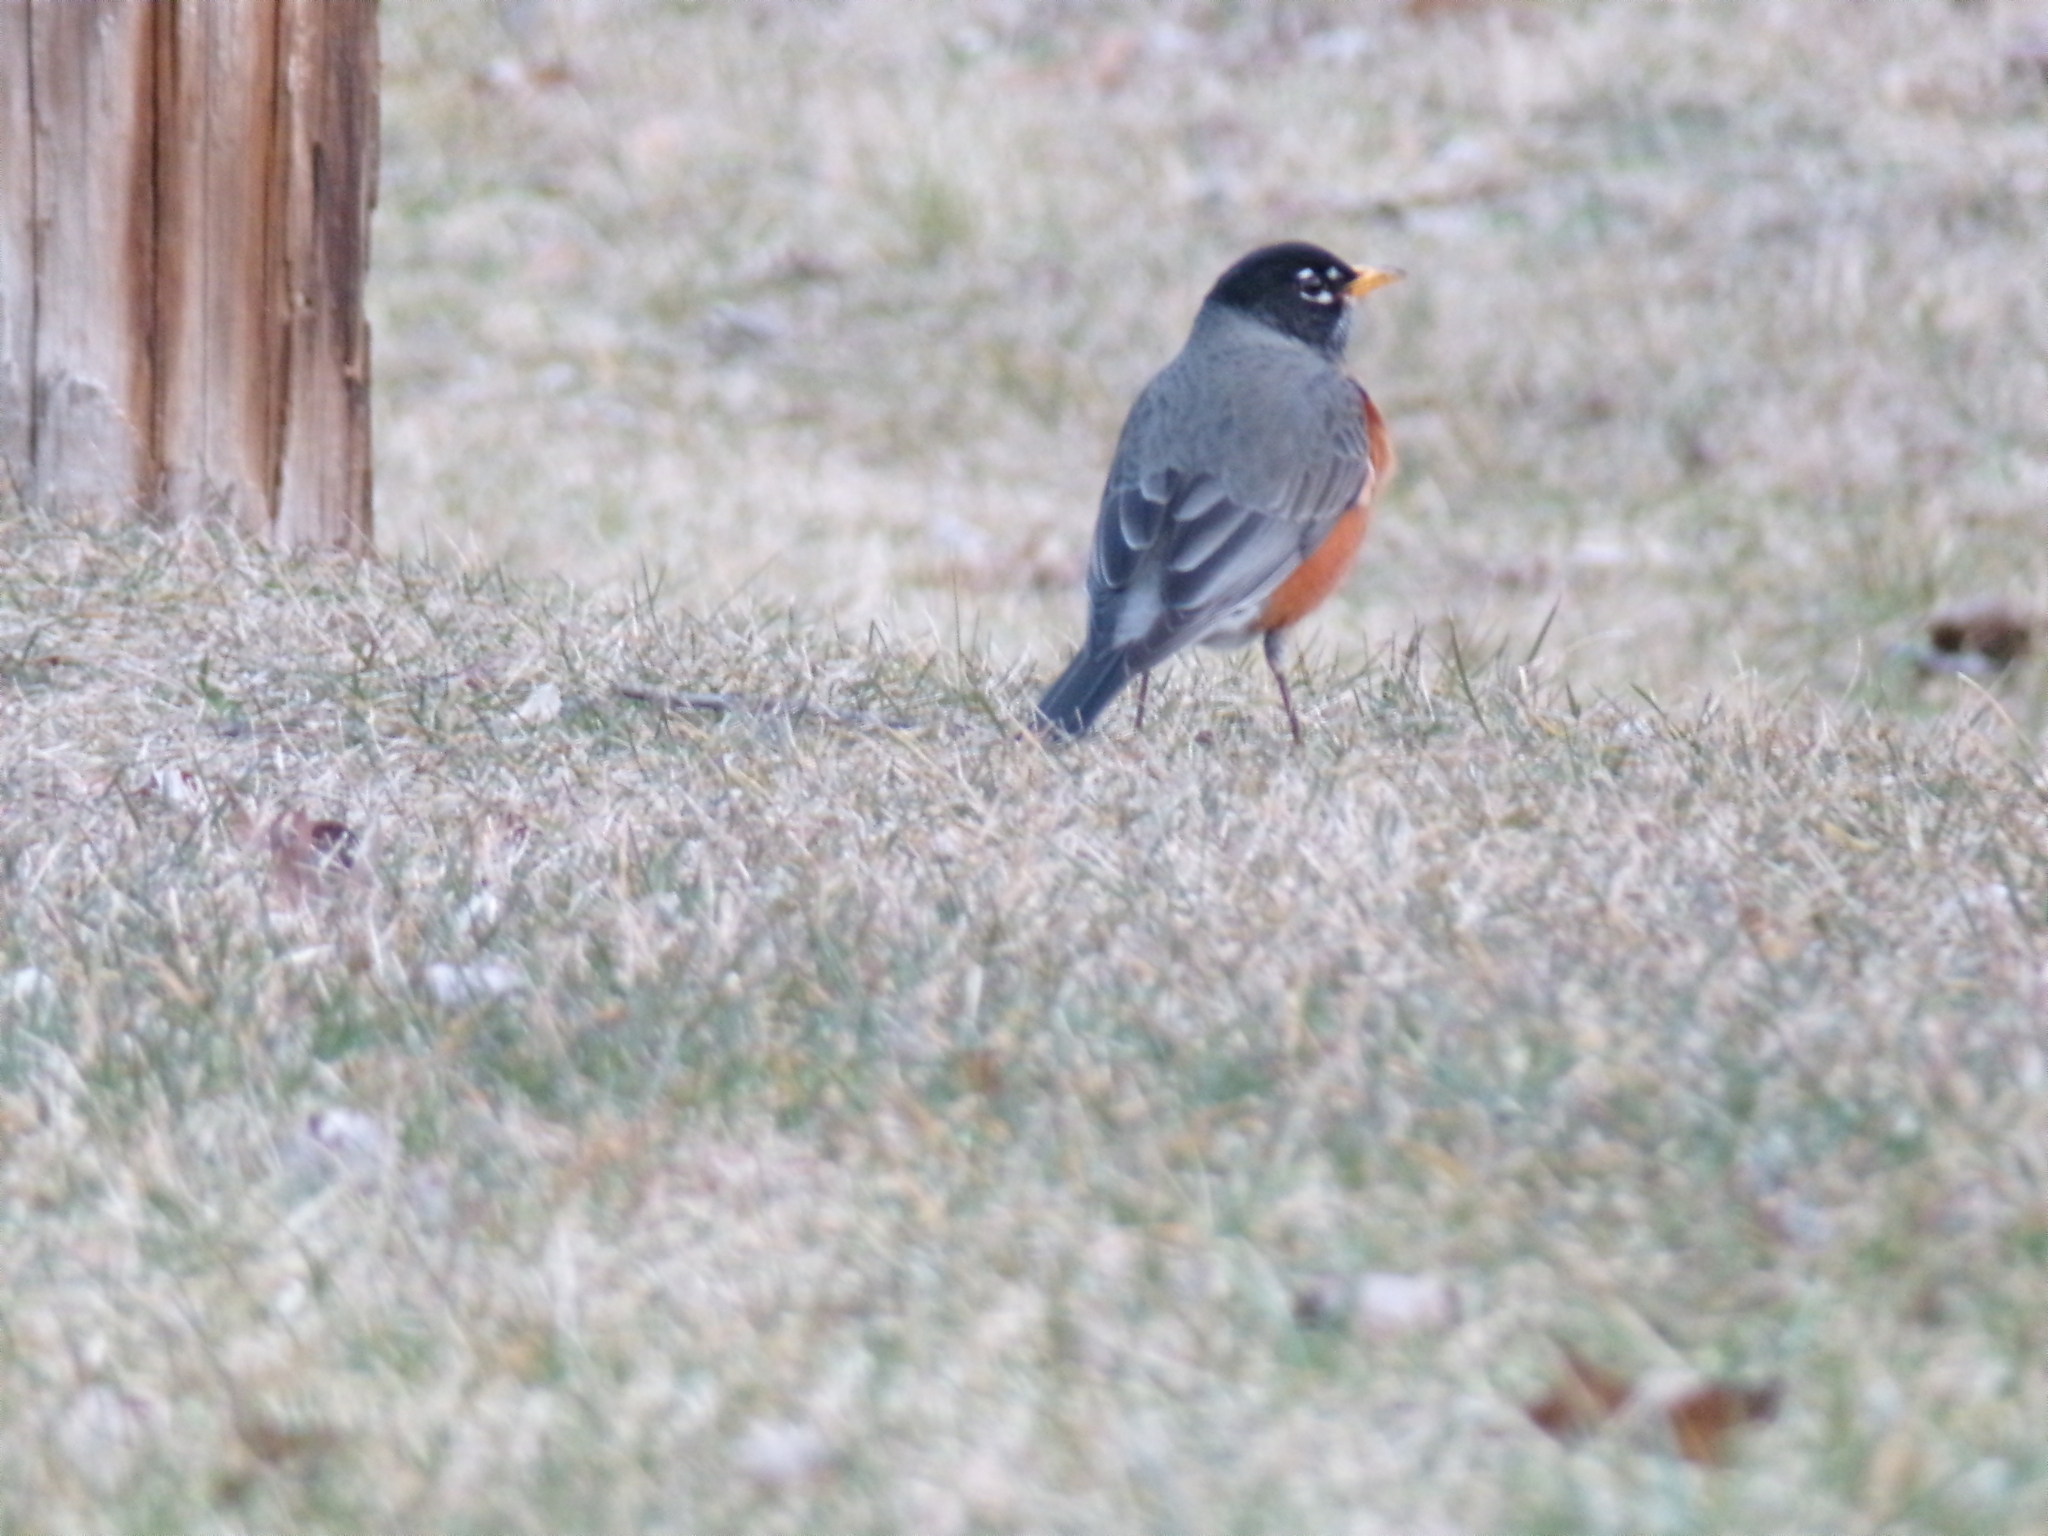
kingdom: Animalia
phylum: Chordata
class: Aves
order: Passeriformes
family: Turdidae
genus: Turdus
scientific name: Turdus migratorius
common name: American robin
